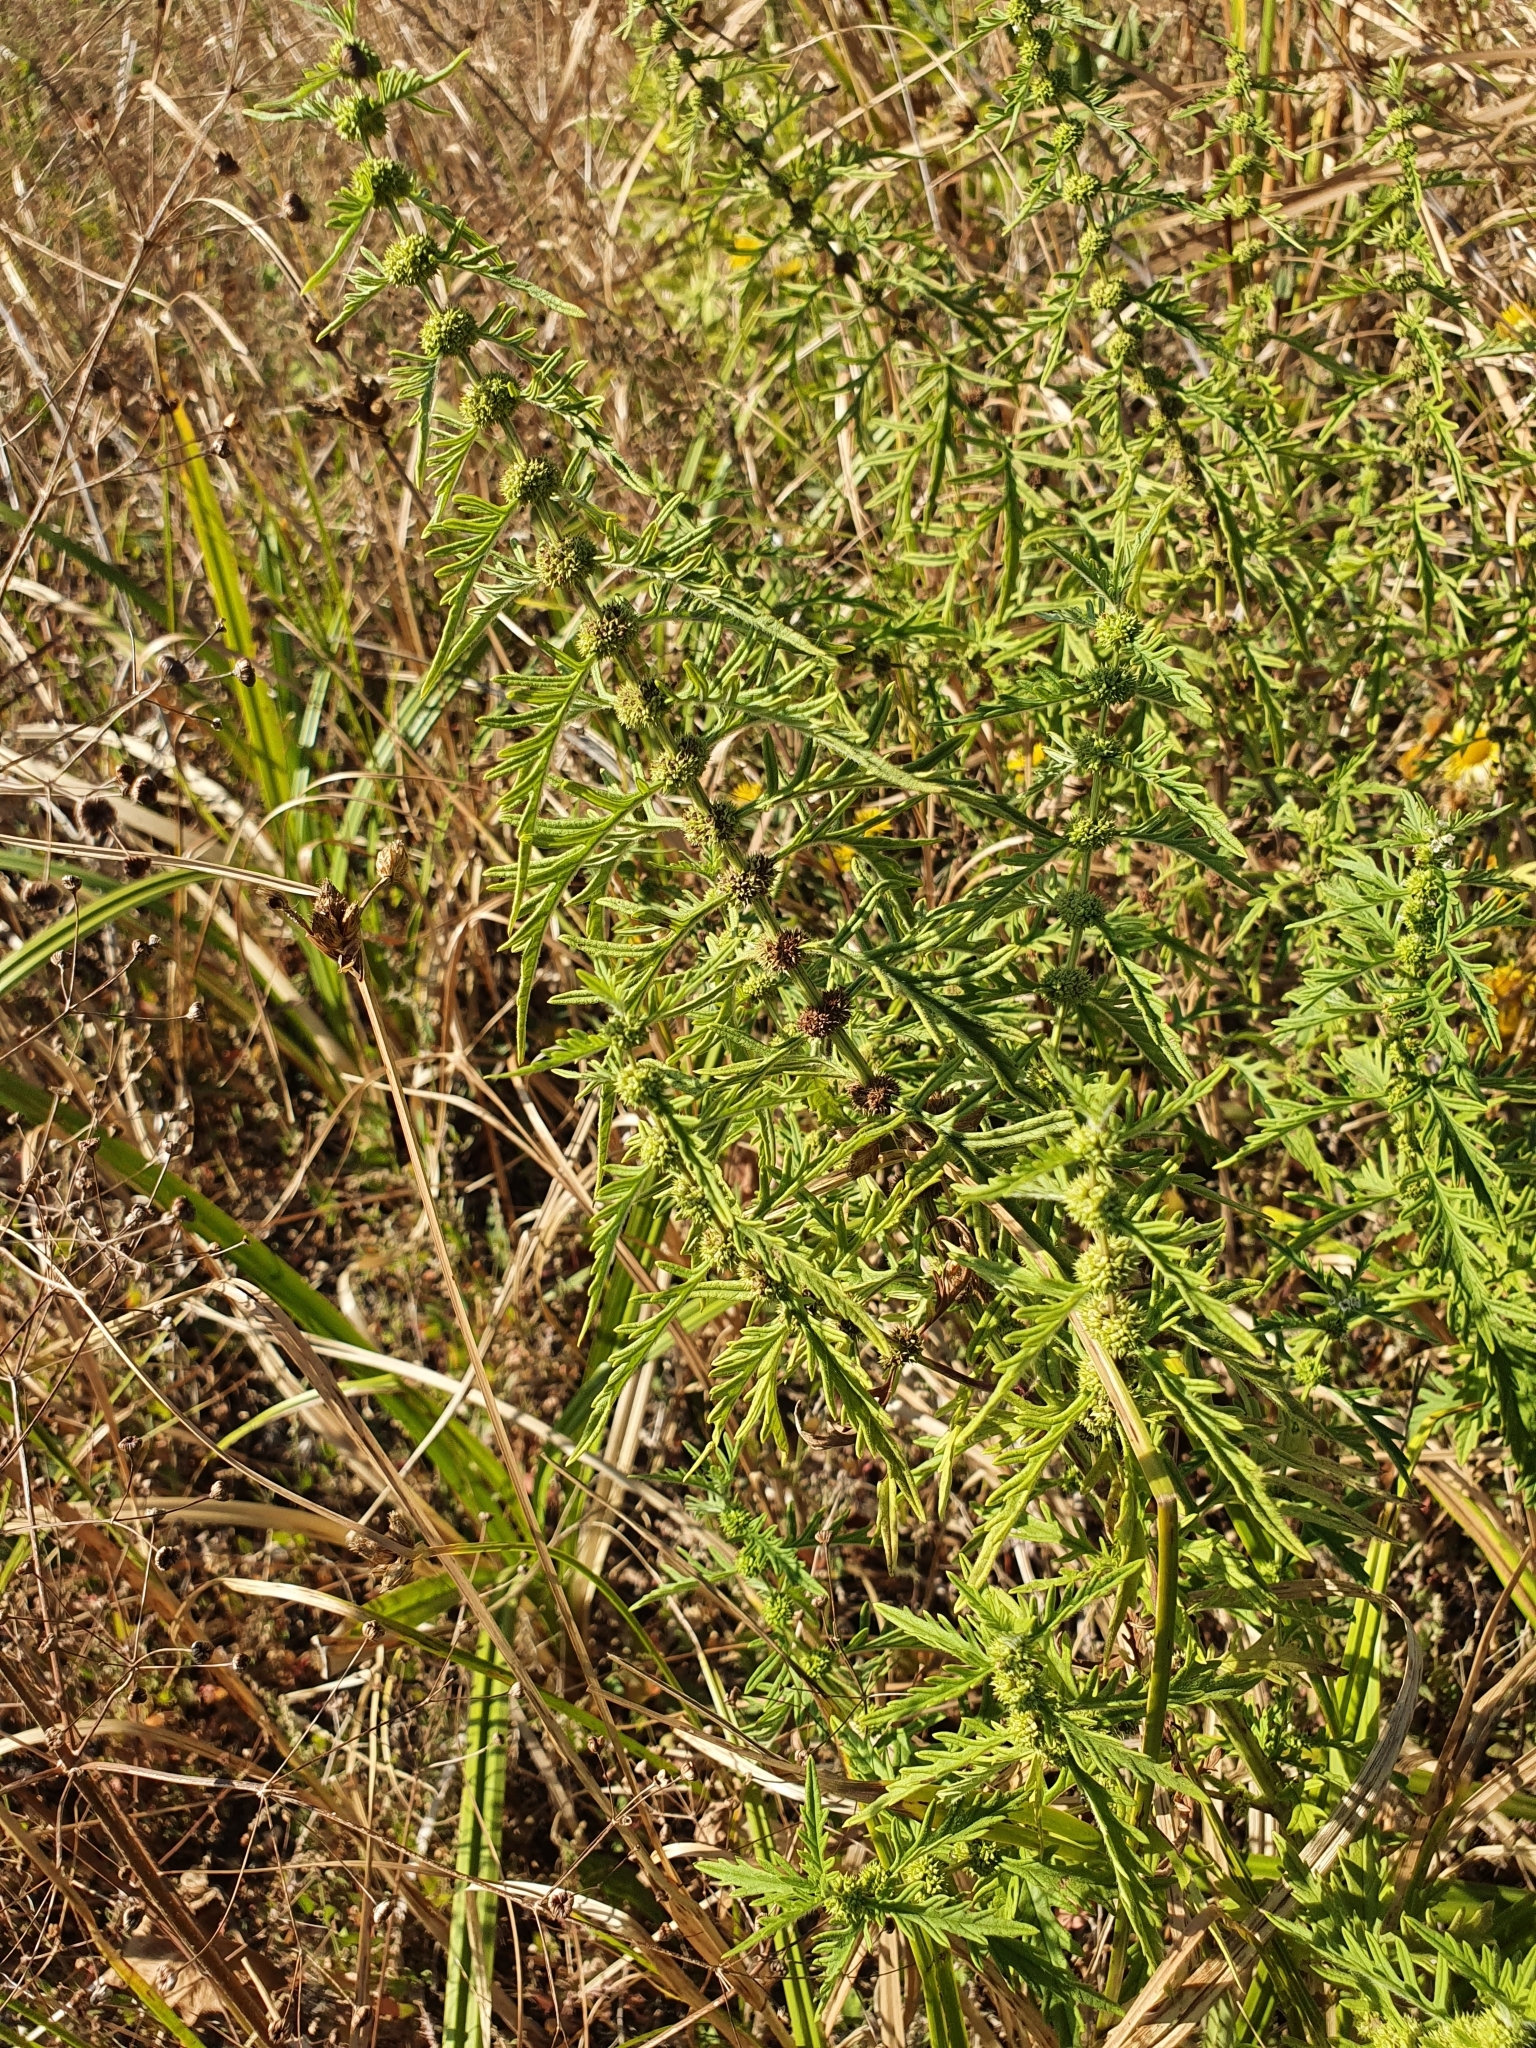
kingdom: Plantae
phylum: Tracheophyta
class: Magnoliopsida
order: Lamiales
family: Lamiaceae
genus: Lycopus
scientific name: Lycopus exaltatus
